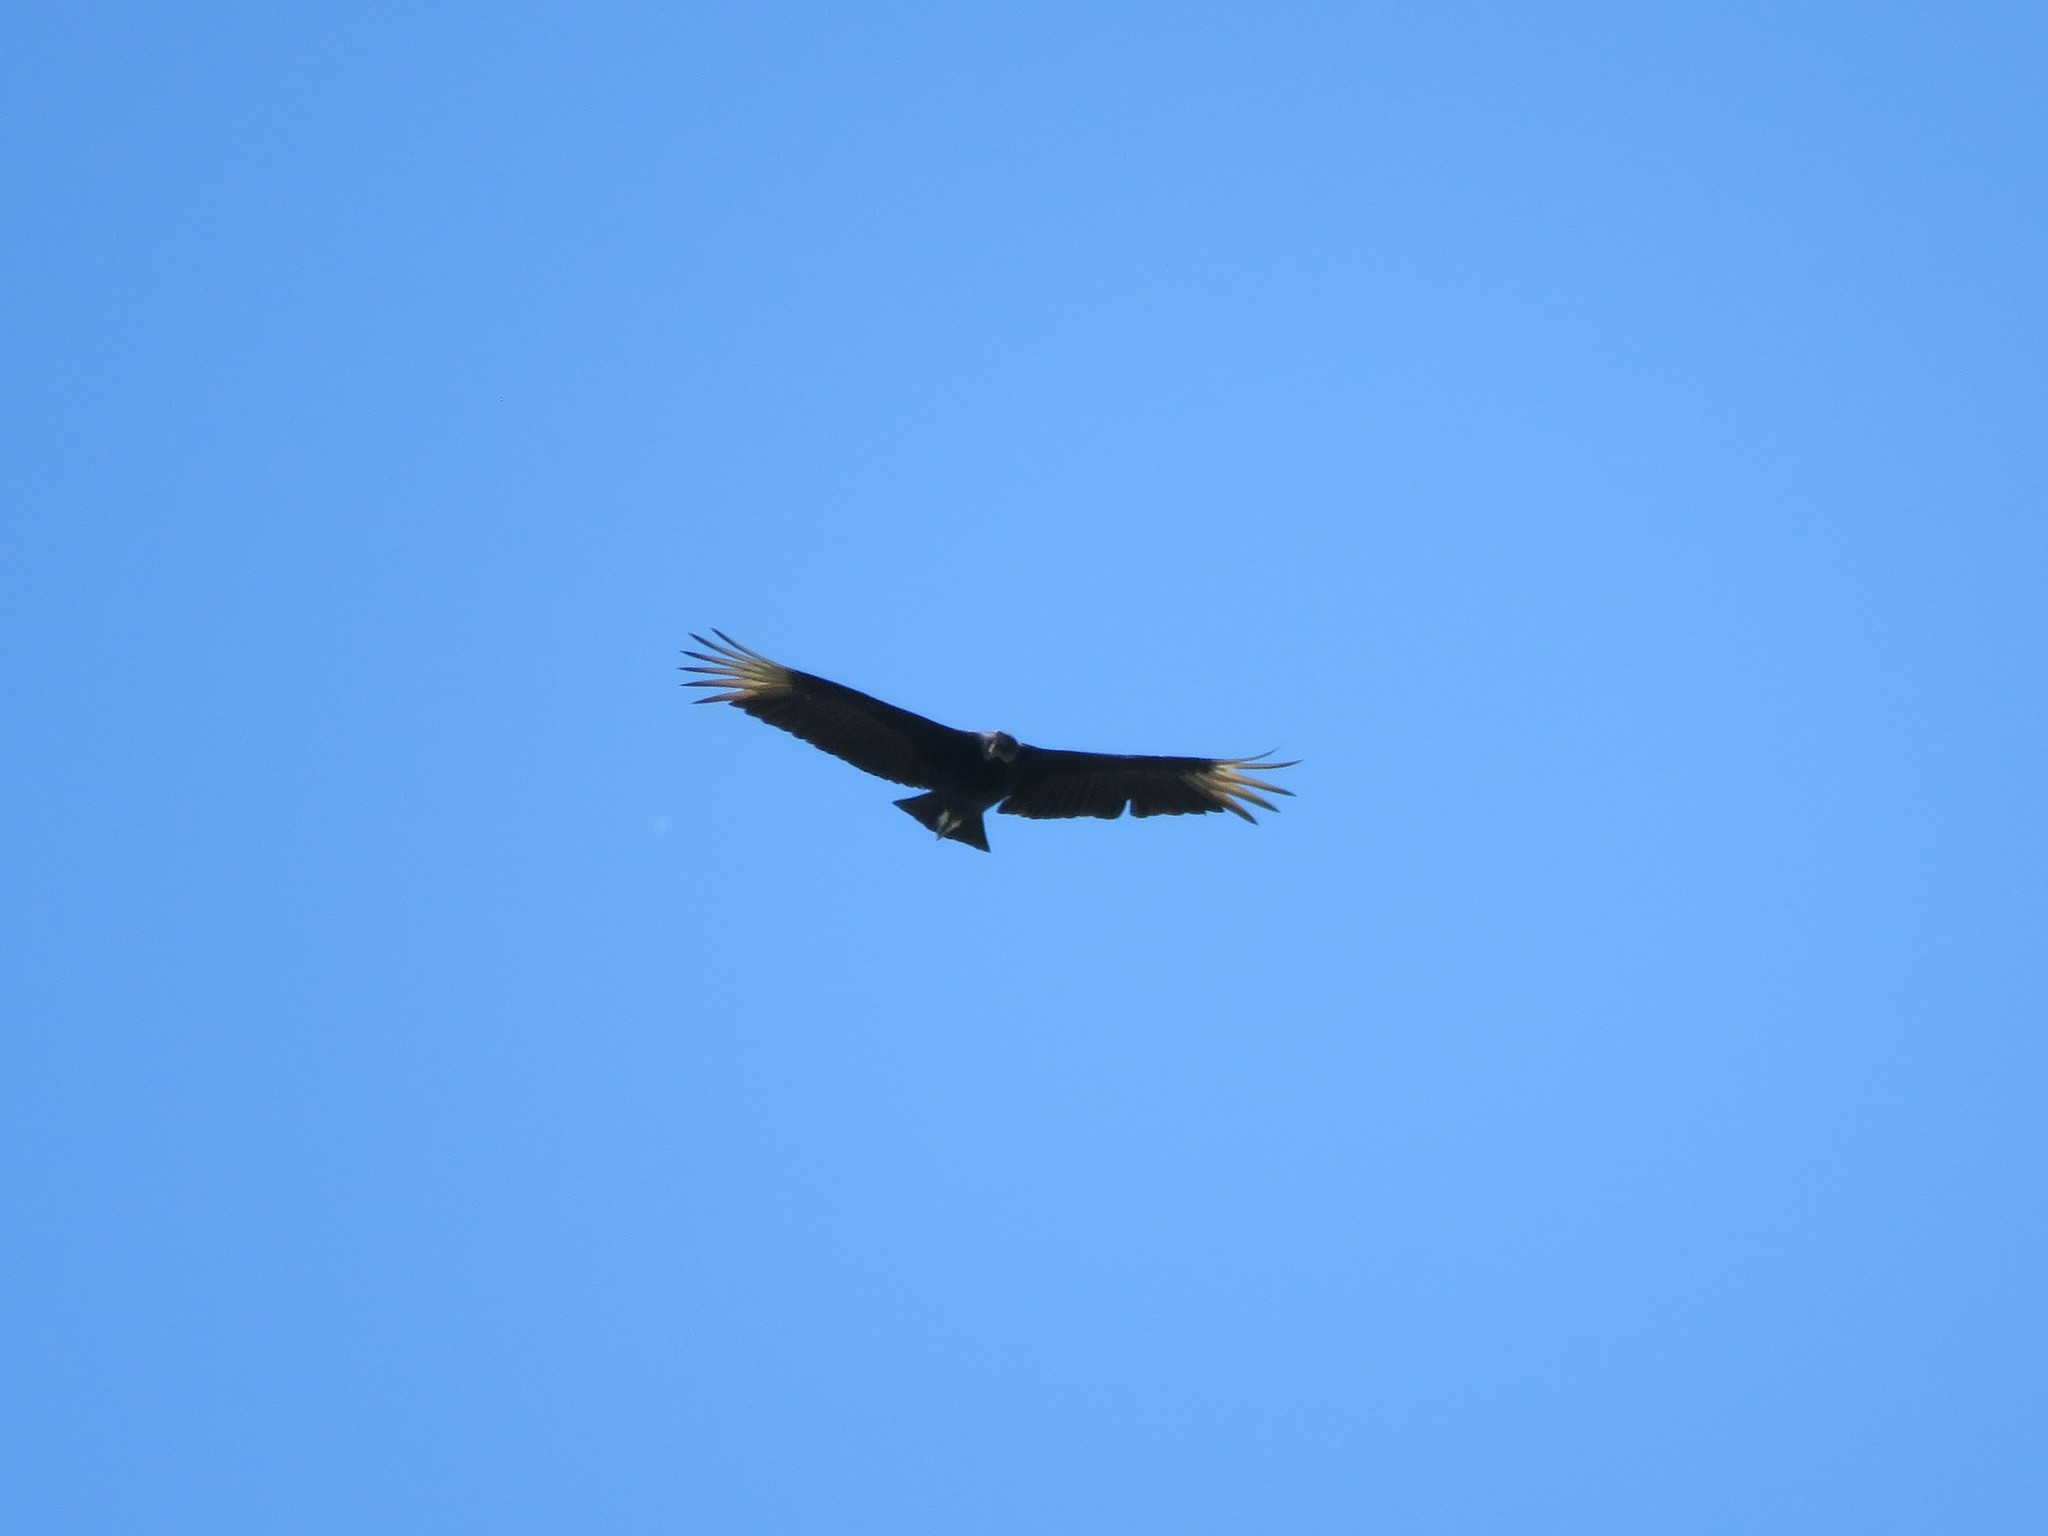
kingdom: Animalia
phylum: Chordata
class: Aves
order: Accipitriformes
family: Cathartidae
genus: Coragyps
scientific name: Coragyps atratus
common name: Black vulture
